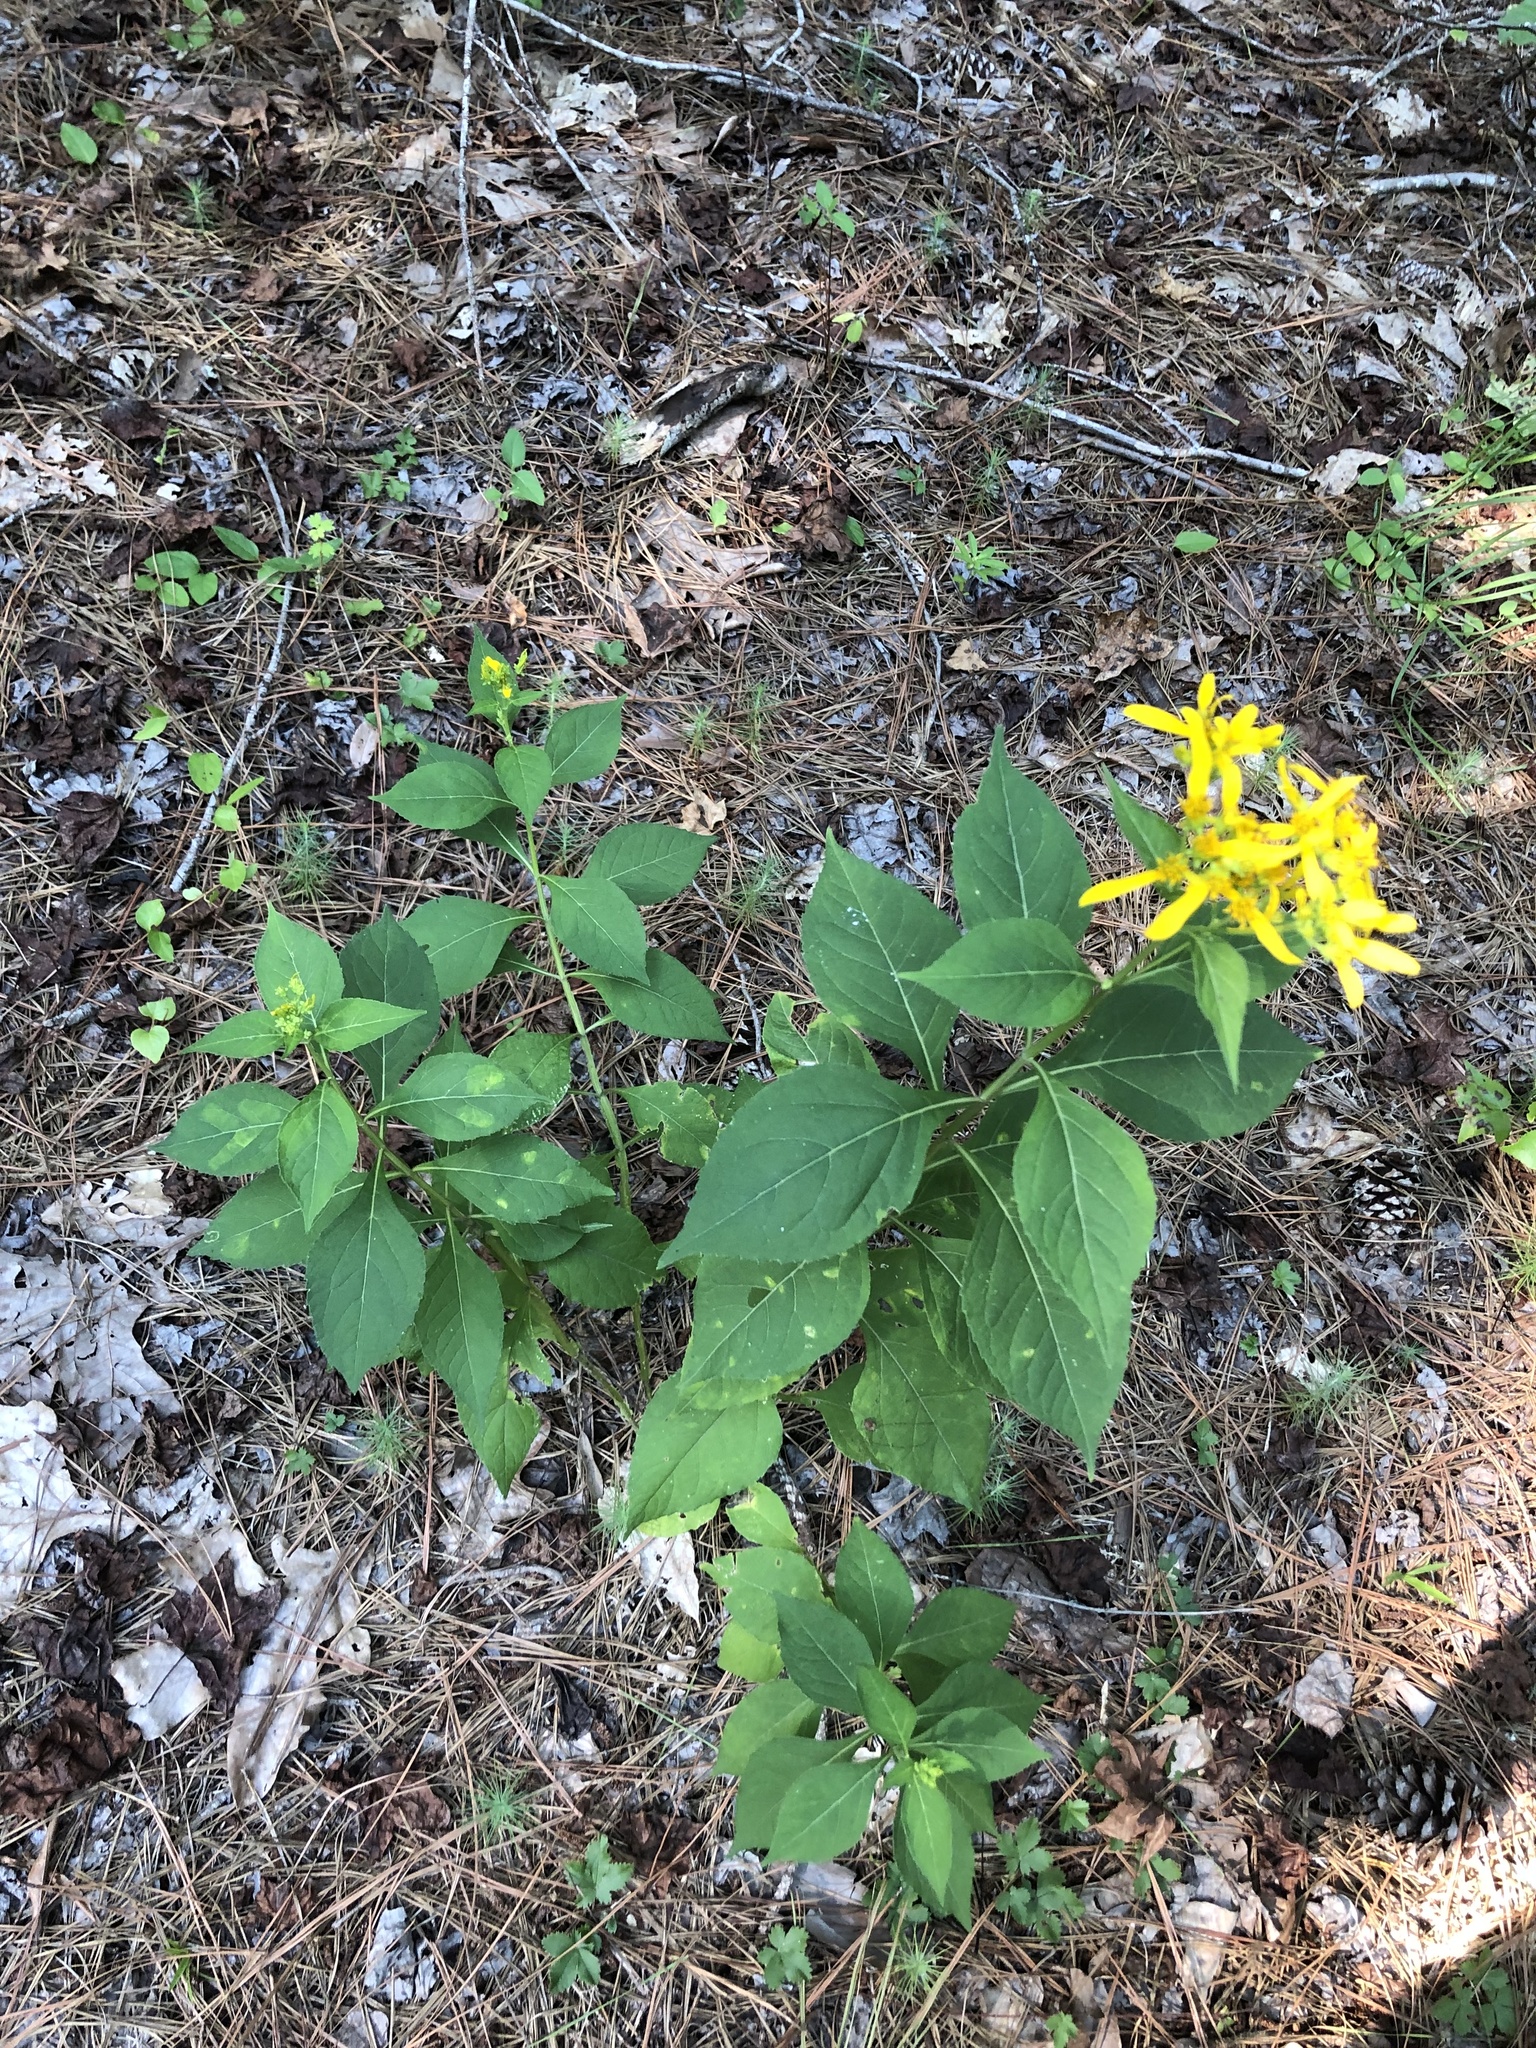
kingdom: Plantae
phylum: Tracheophyta
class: Magnoliopsida
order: Asterales
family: Asteraceae
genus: Verbesina
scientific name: Verbesina occidentalis
